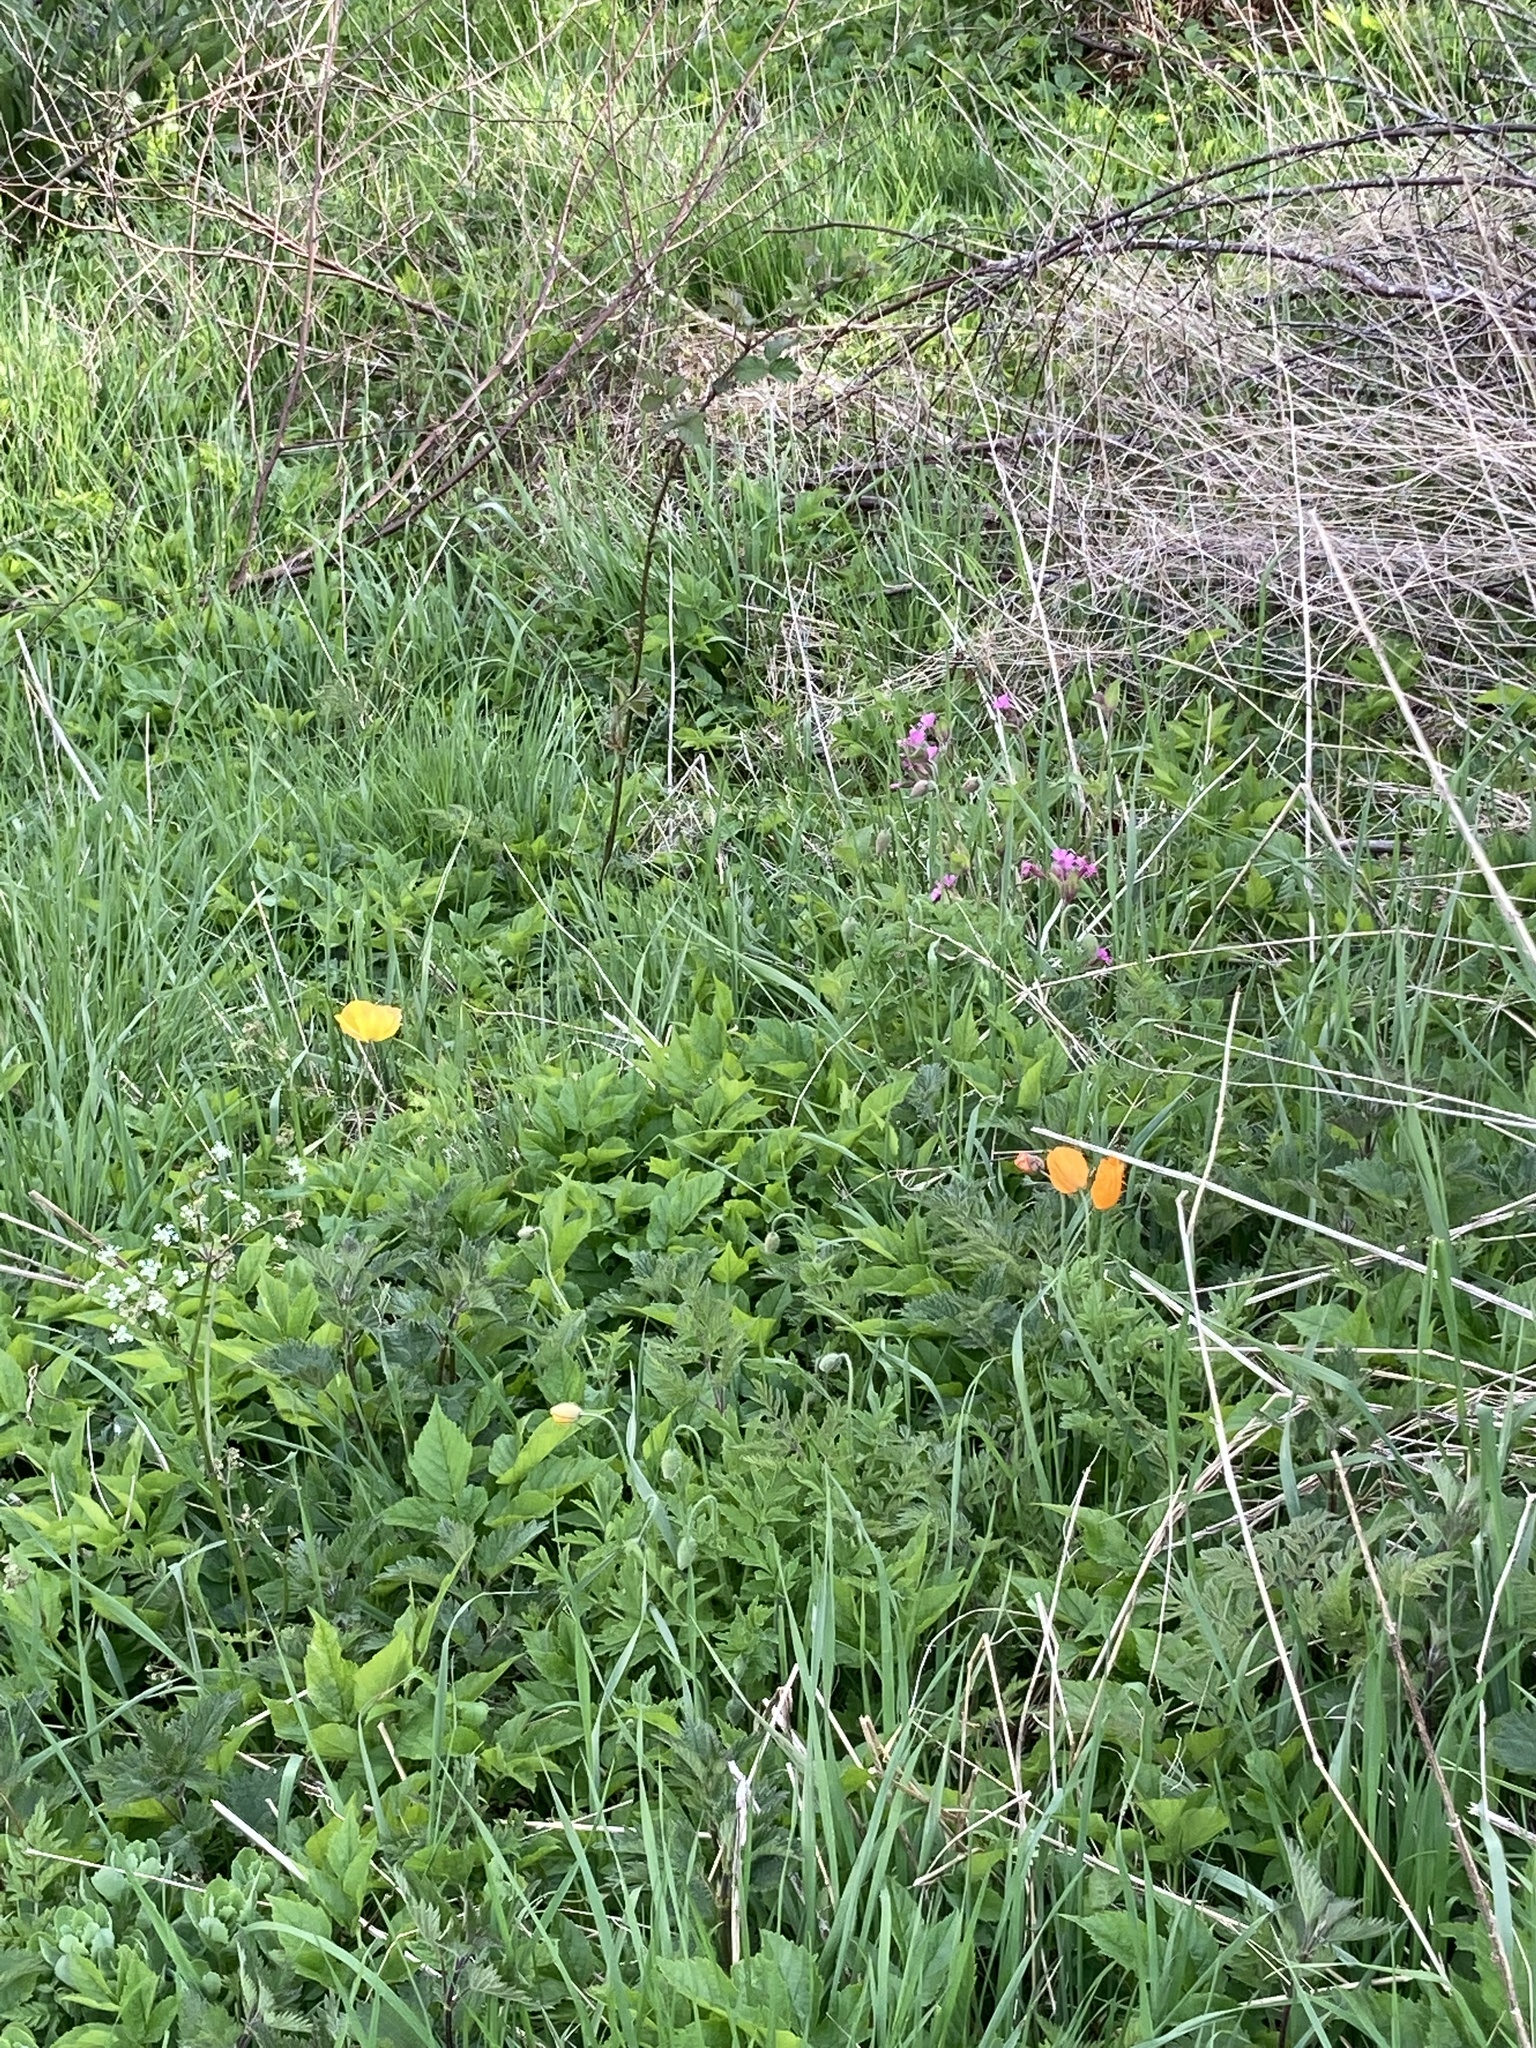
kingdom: Plantae
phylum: Tracheophyta
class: Magnoliopsida
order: Ranunculales
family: Papaveraceae
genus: Papaver
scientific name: Papaver cambricum
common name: Poppy
